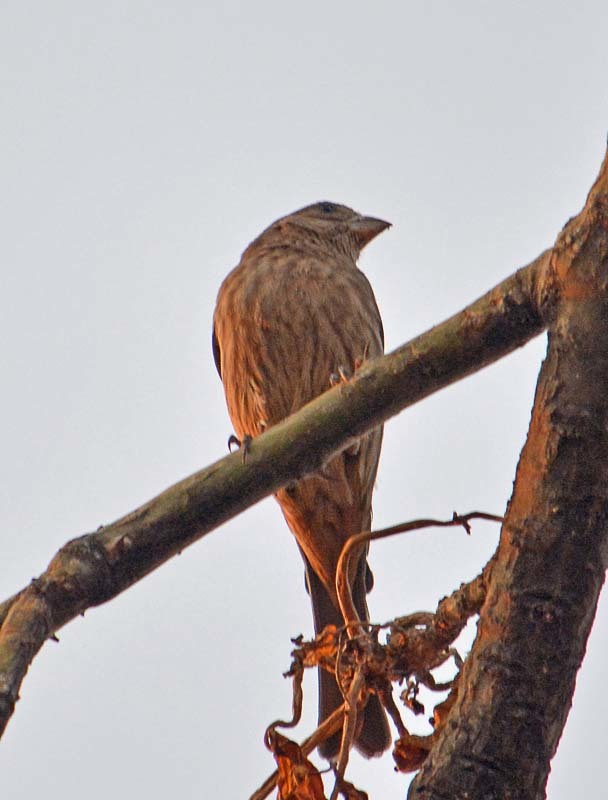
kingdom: Animalia
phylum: Chordata
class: Aves
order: Passeriformes
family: Fringillidae
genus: Haemorhous
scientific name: Haemorhous mexicanus
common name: House finch
